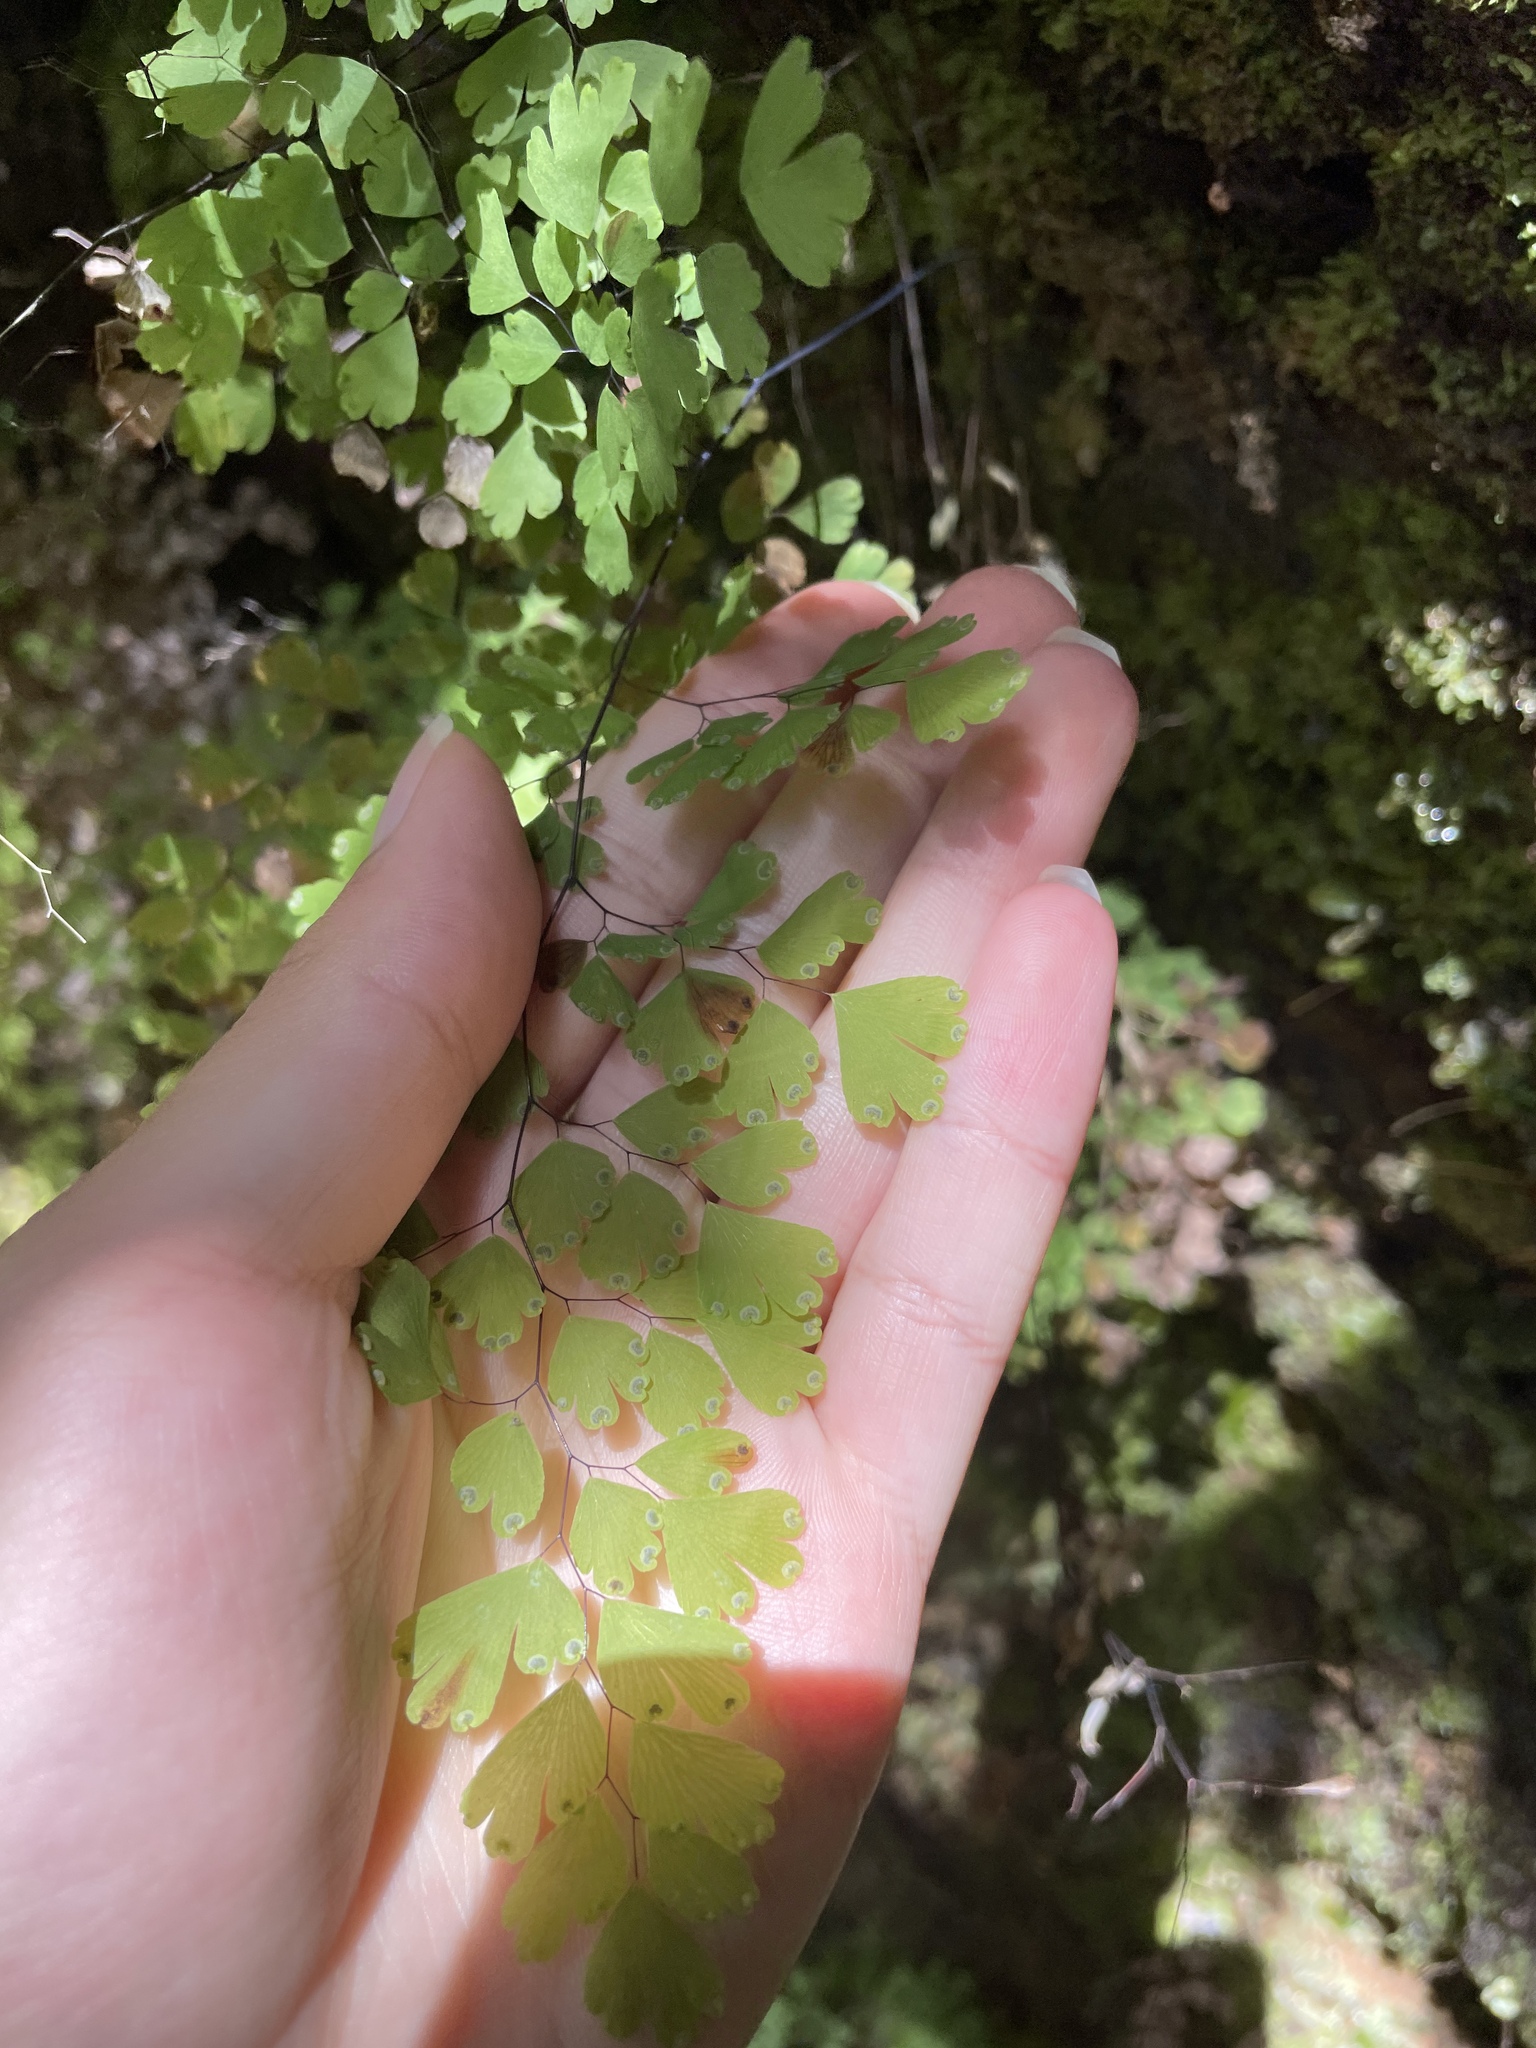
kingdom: Plantae
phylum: Tracheophyta
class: Polypodiopsida
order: Polypodiales
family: Pteridaceae
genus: Adiantum
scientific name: Adiantum raddianum
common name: Delta maidenhair fern
